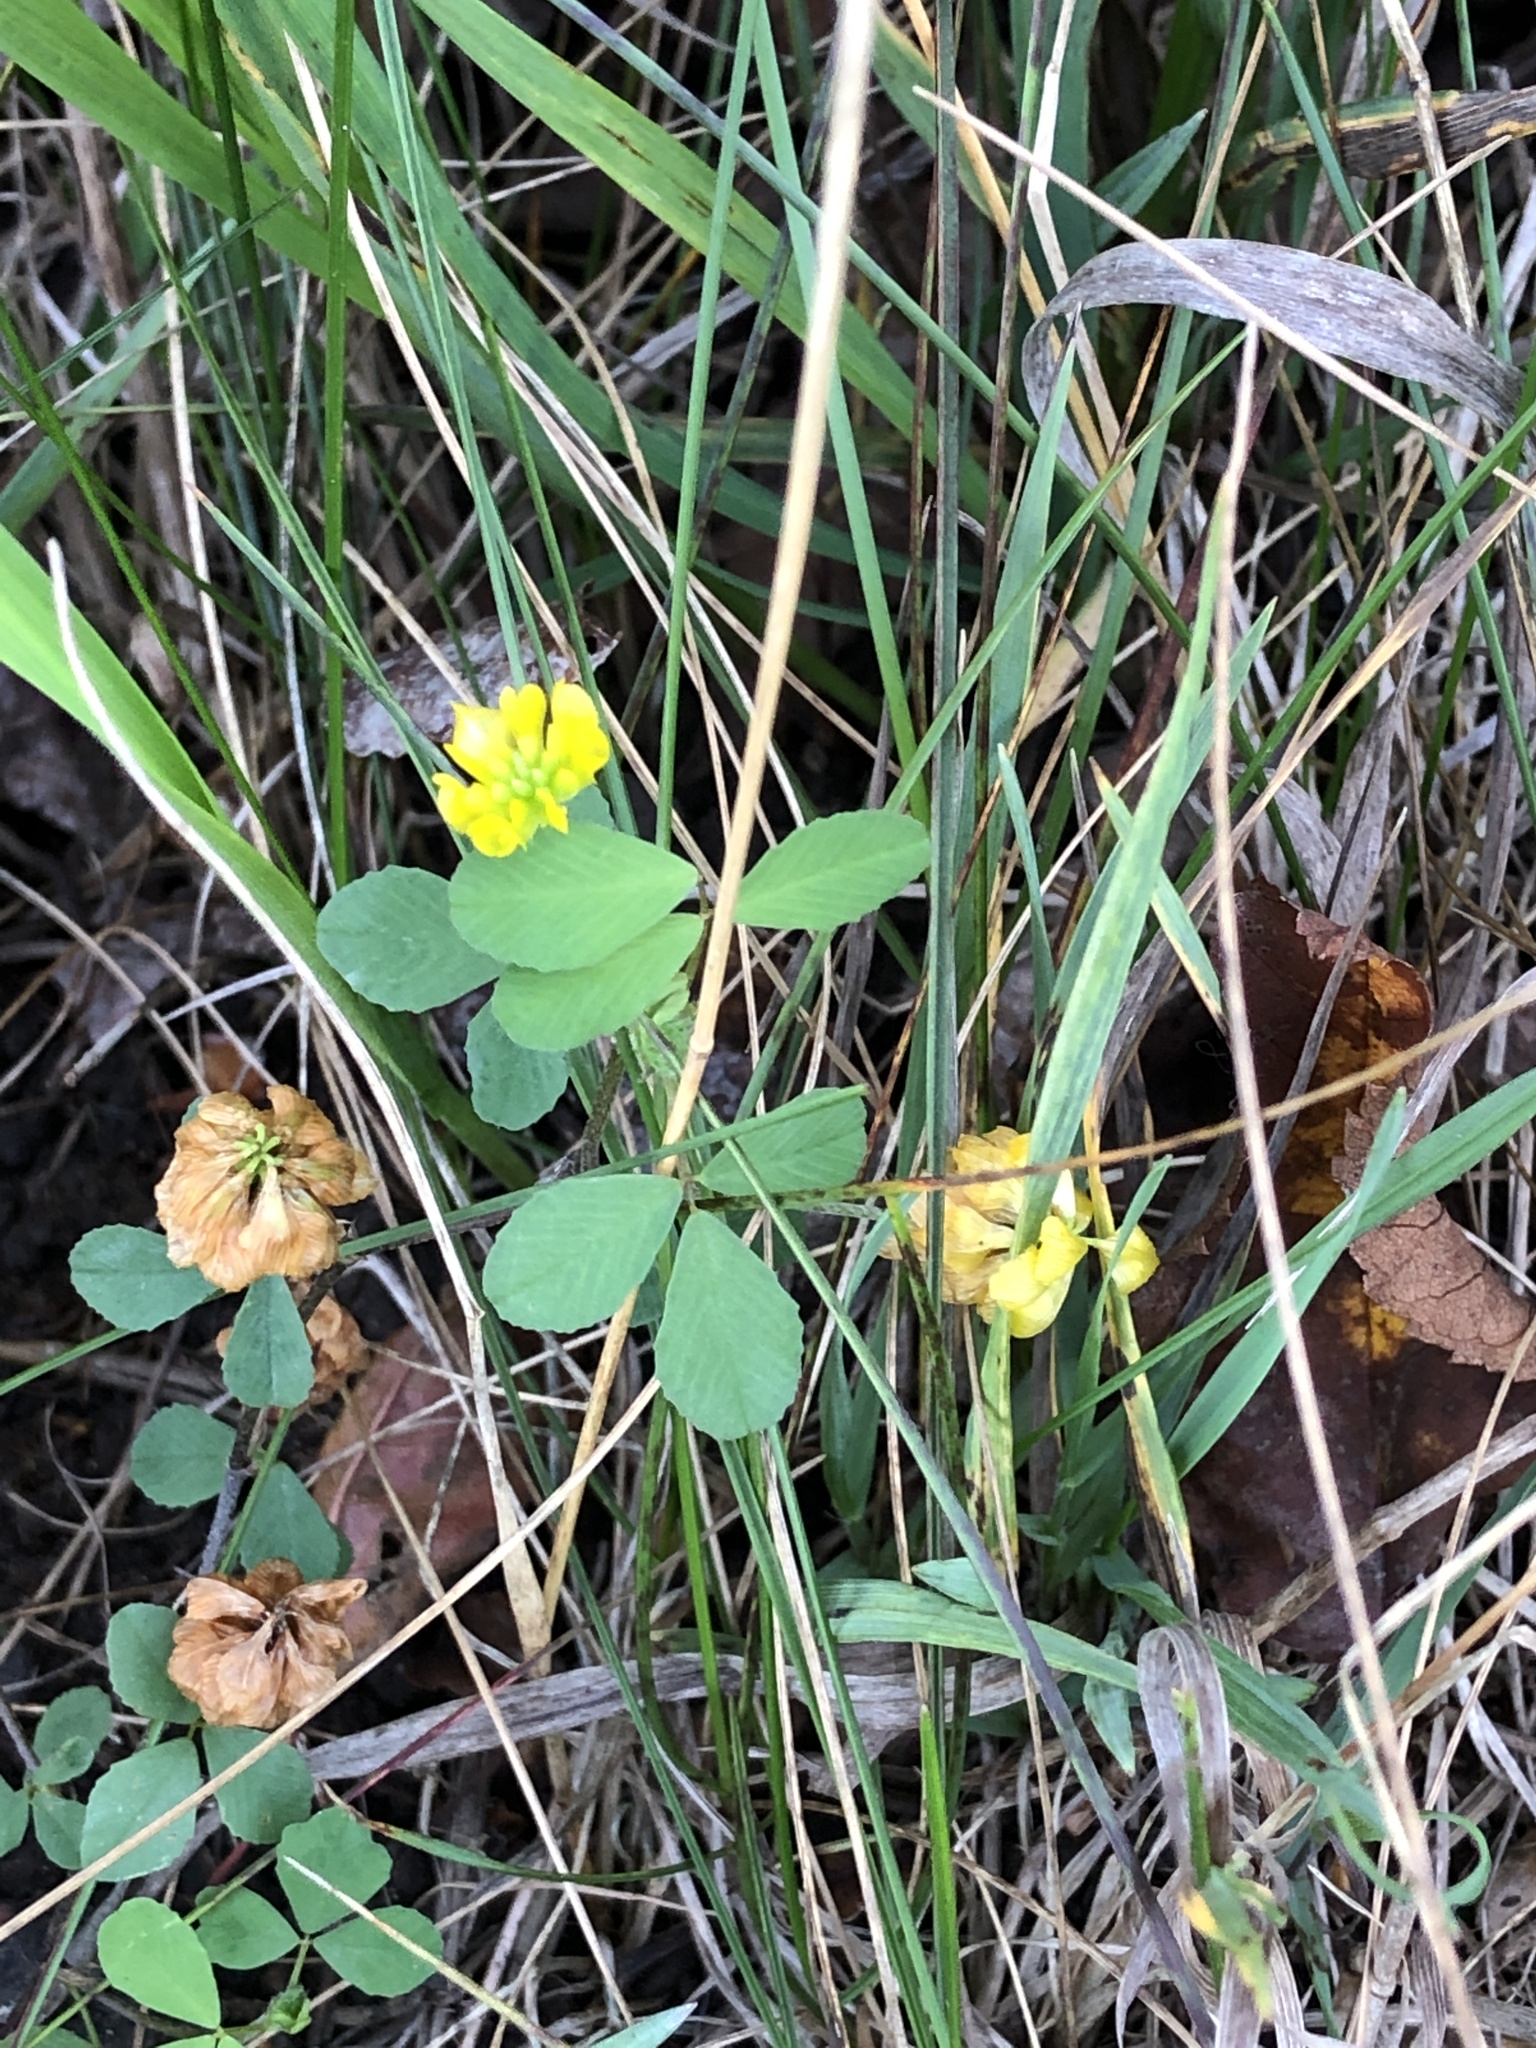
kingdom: Plantae
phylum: Tracheophyta
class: Magnoliopsida
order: Fabales
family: Fabaceae
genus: Trifolium
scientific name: Trifolium campestre
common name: Field clover
